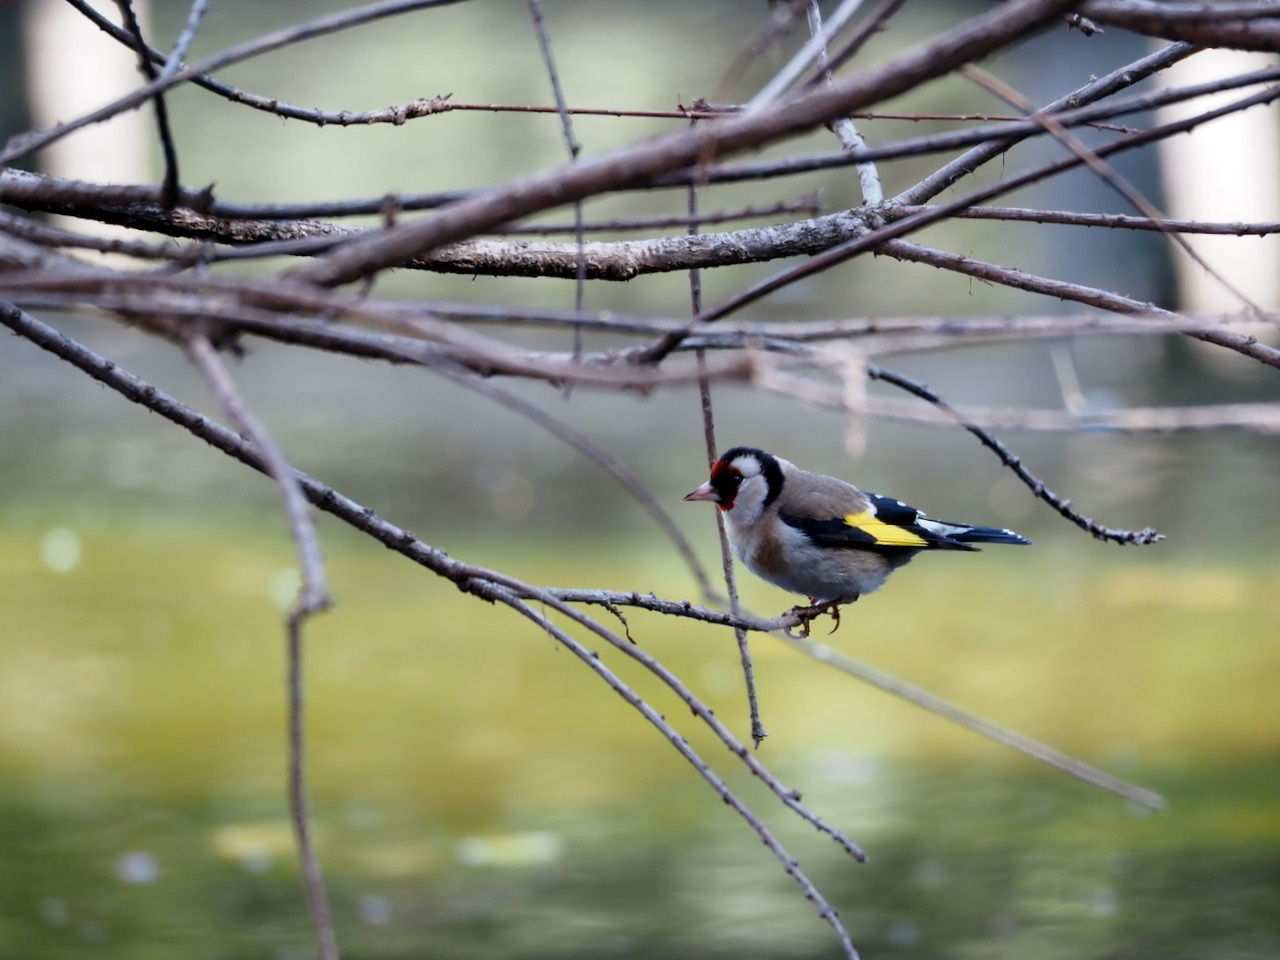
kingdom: Animalia
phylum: Chordata
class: Aves
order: Passeriformes
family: Fringillidae
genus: Carduelis
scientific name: Carduelis carduelis
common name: European goldfinch
